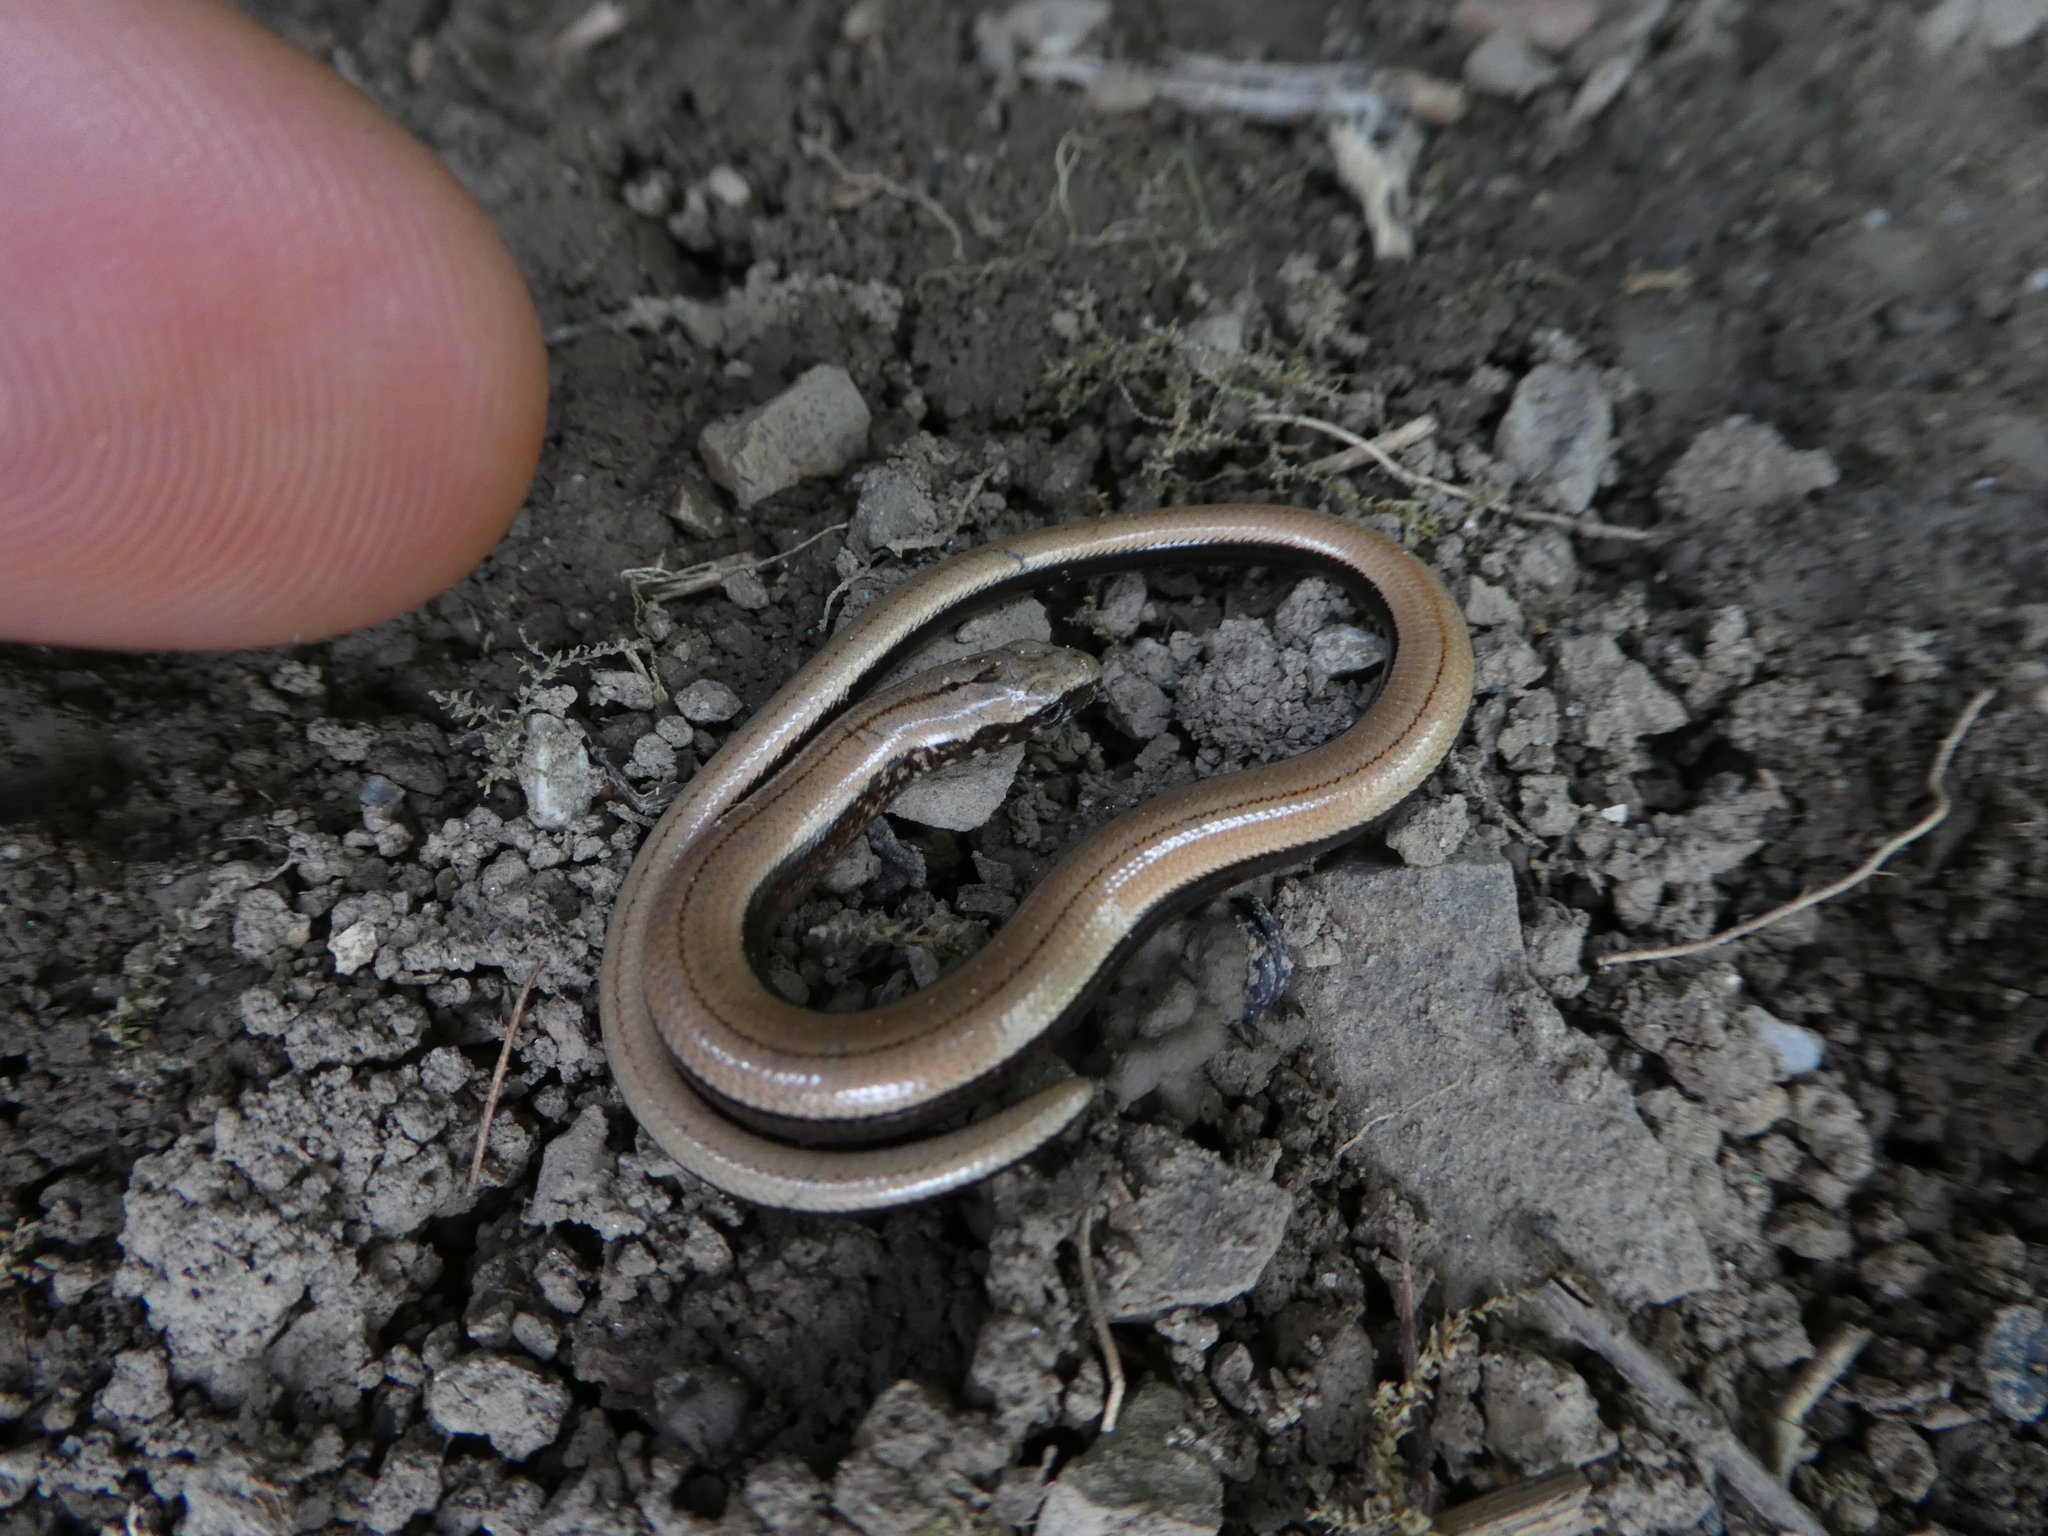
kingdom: Animalia
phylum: Chordata
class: Squamata
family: Anguidae
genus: Anguis
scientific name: Anguis fragilis
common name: Slow worm
